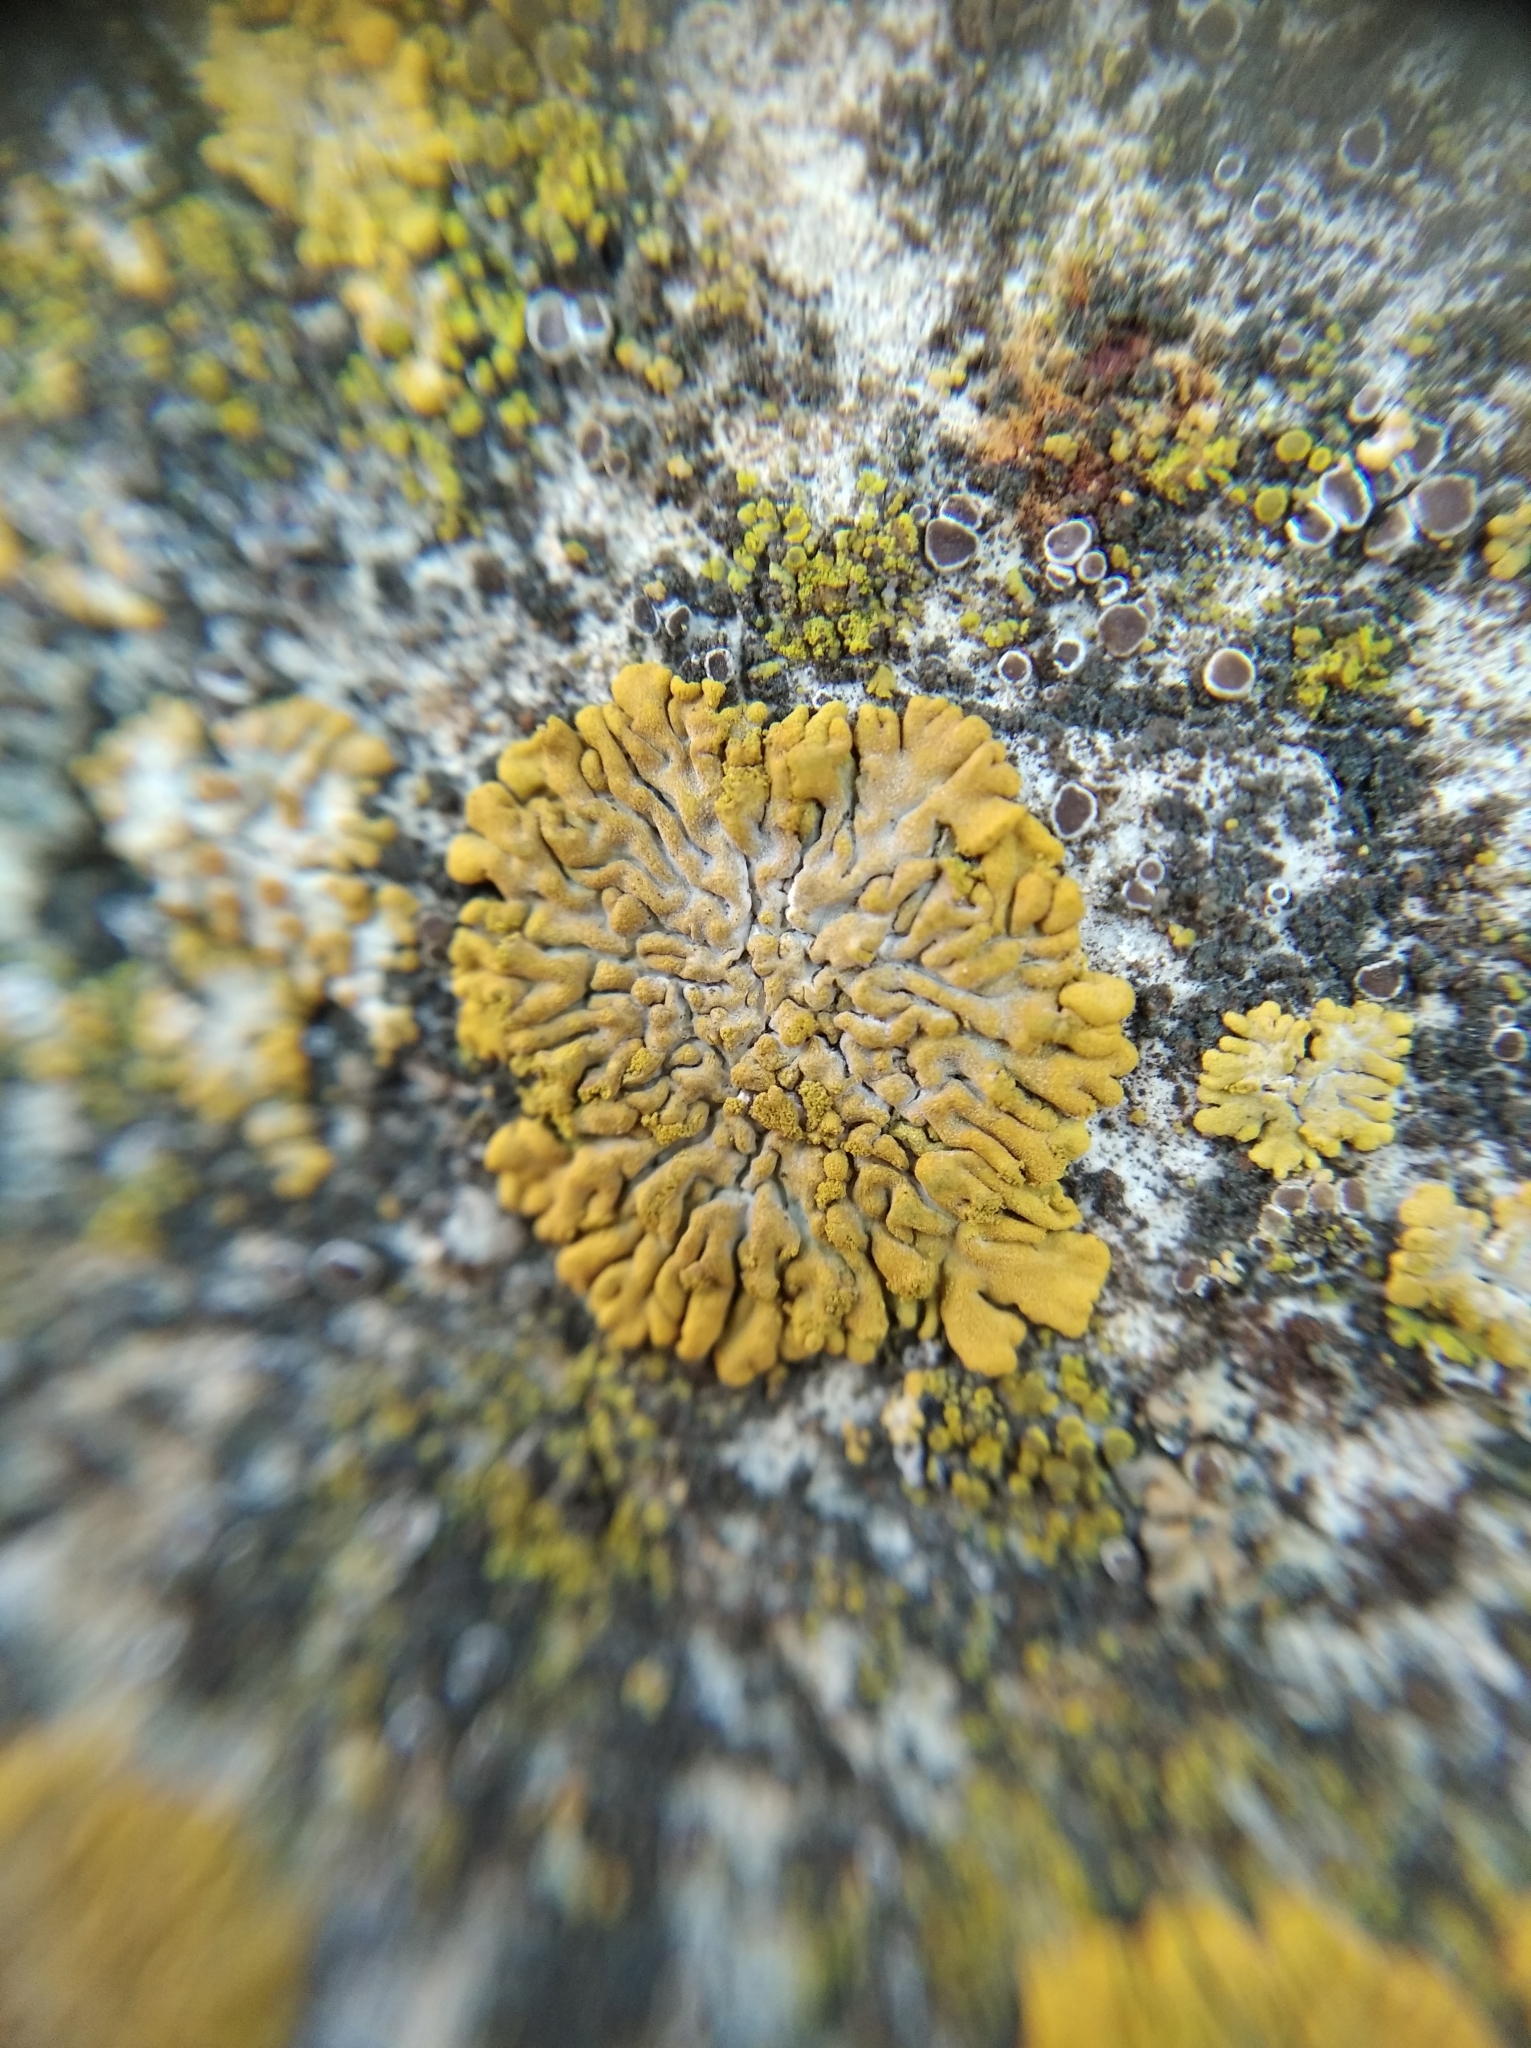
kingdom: Fungi
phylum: Ascomycota
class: Lecanoromycetes
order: Teloschistales
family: Teloschistaceae
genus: Calogaya
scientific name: Calogaya decipiens
